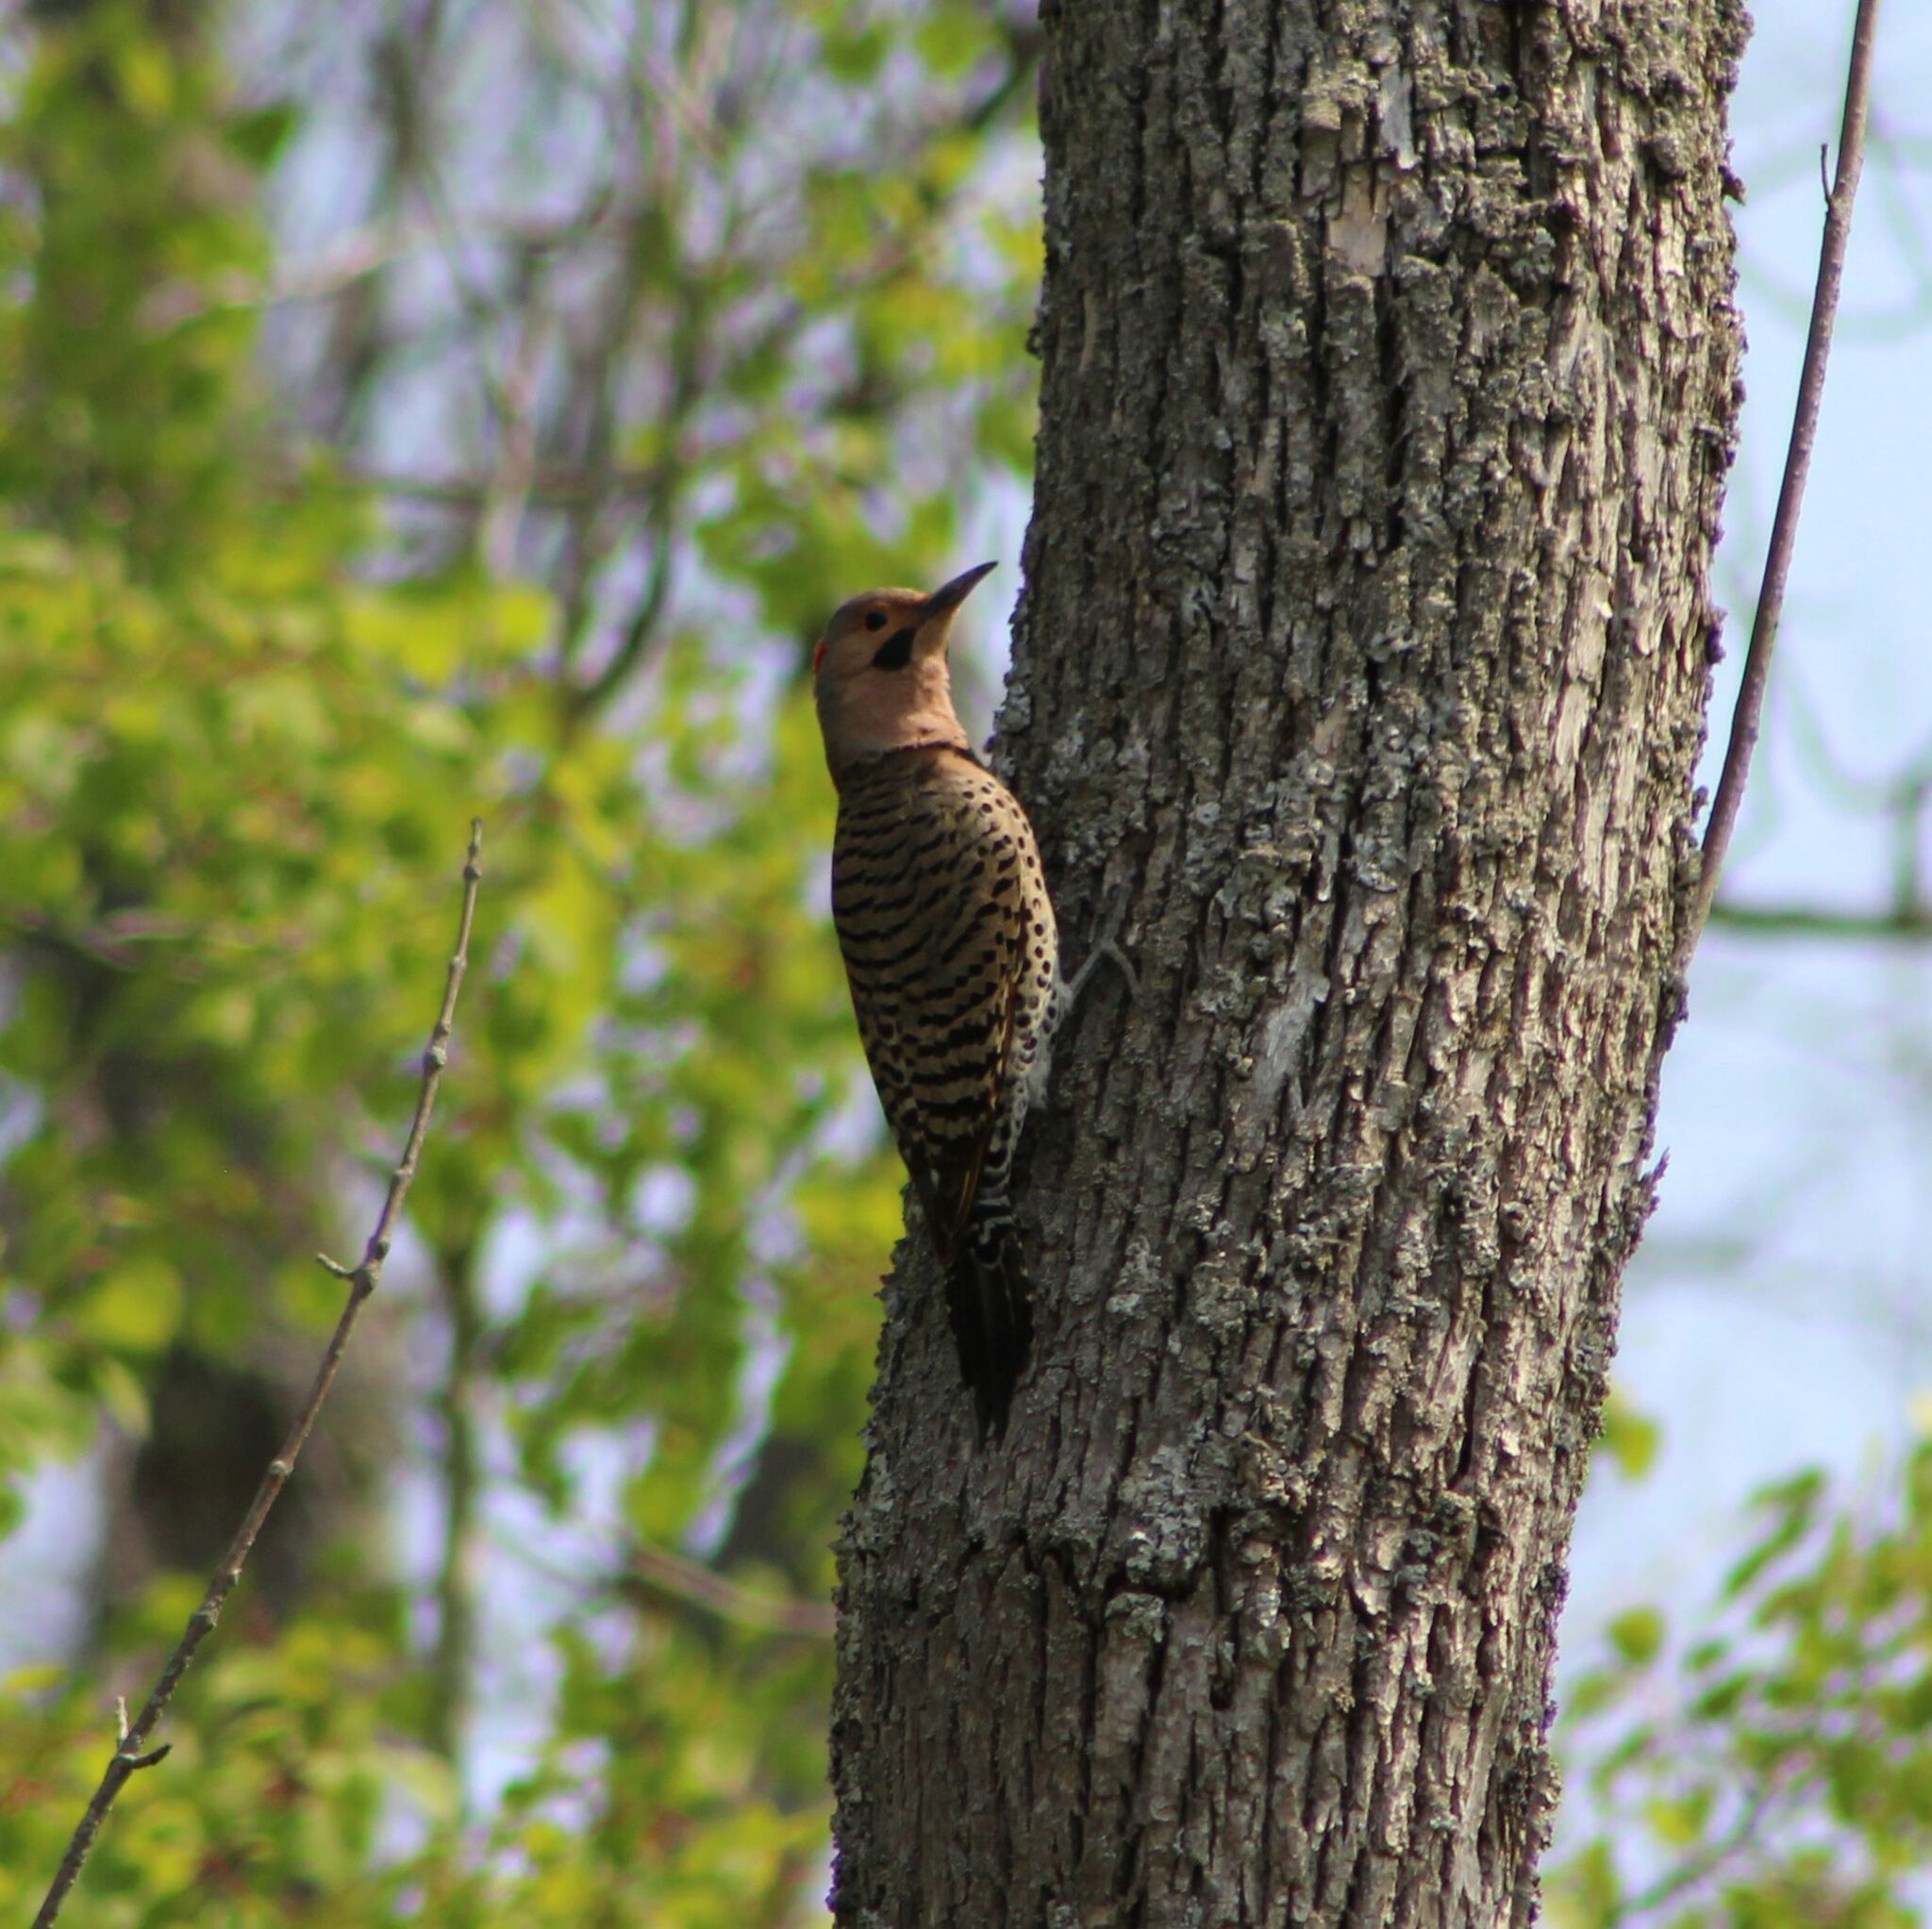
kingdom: Animalia
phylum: Chordata
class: Aves
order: Piciformes
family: Picidae
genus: Colaptes
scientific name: Colaptes auratus
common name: Northern flicker
